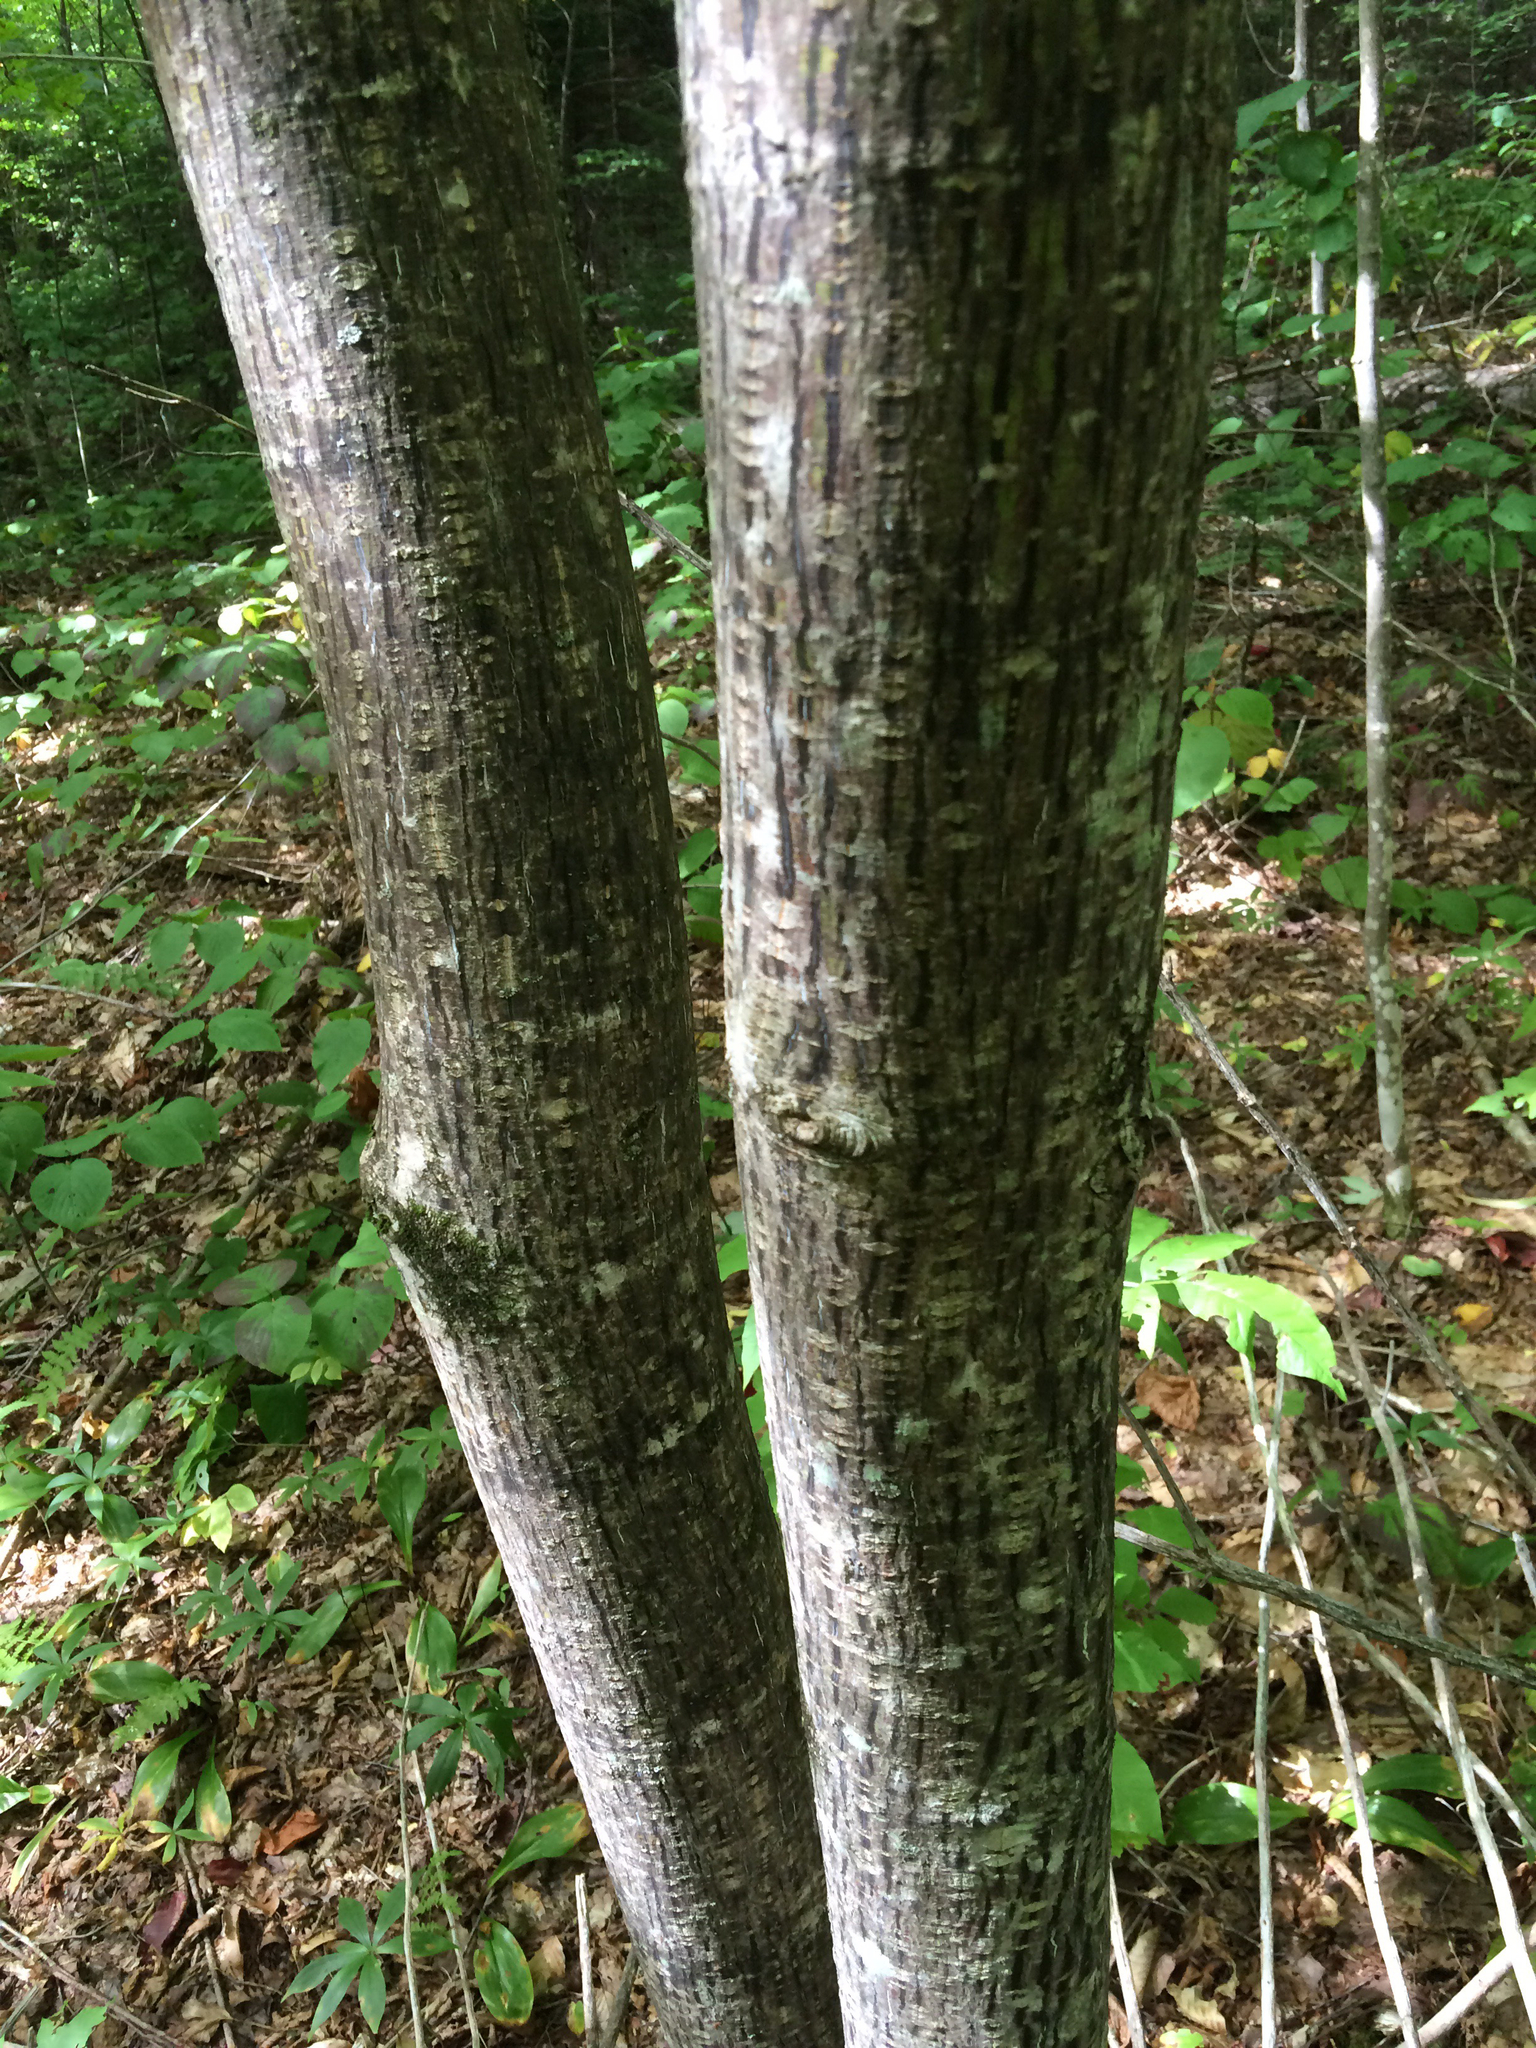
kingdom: Plantae
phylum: Tracheophyta
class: Magnoliopsida
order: Sapindales
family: Sapindaceae
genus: Acer
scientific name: Acer pensylvanicum
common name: Moosewood
